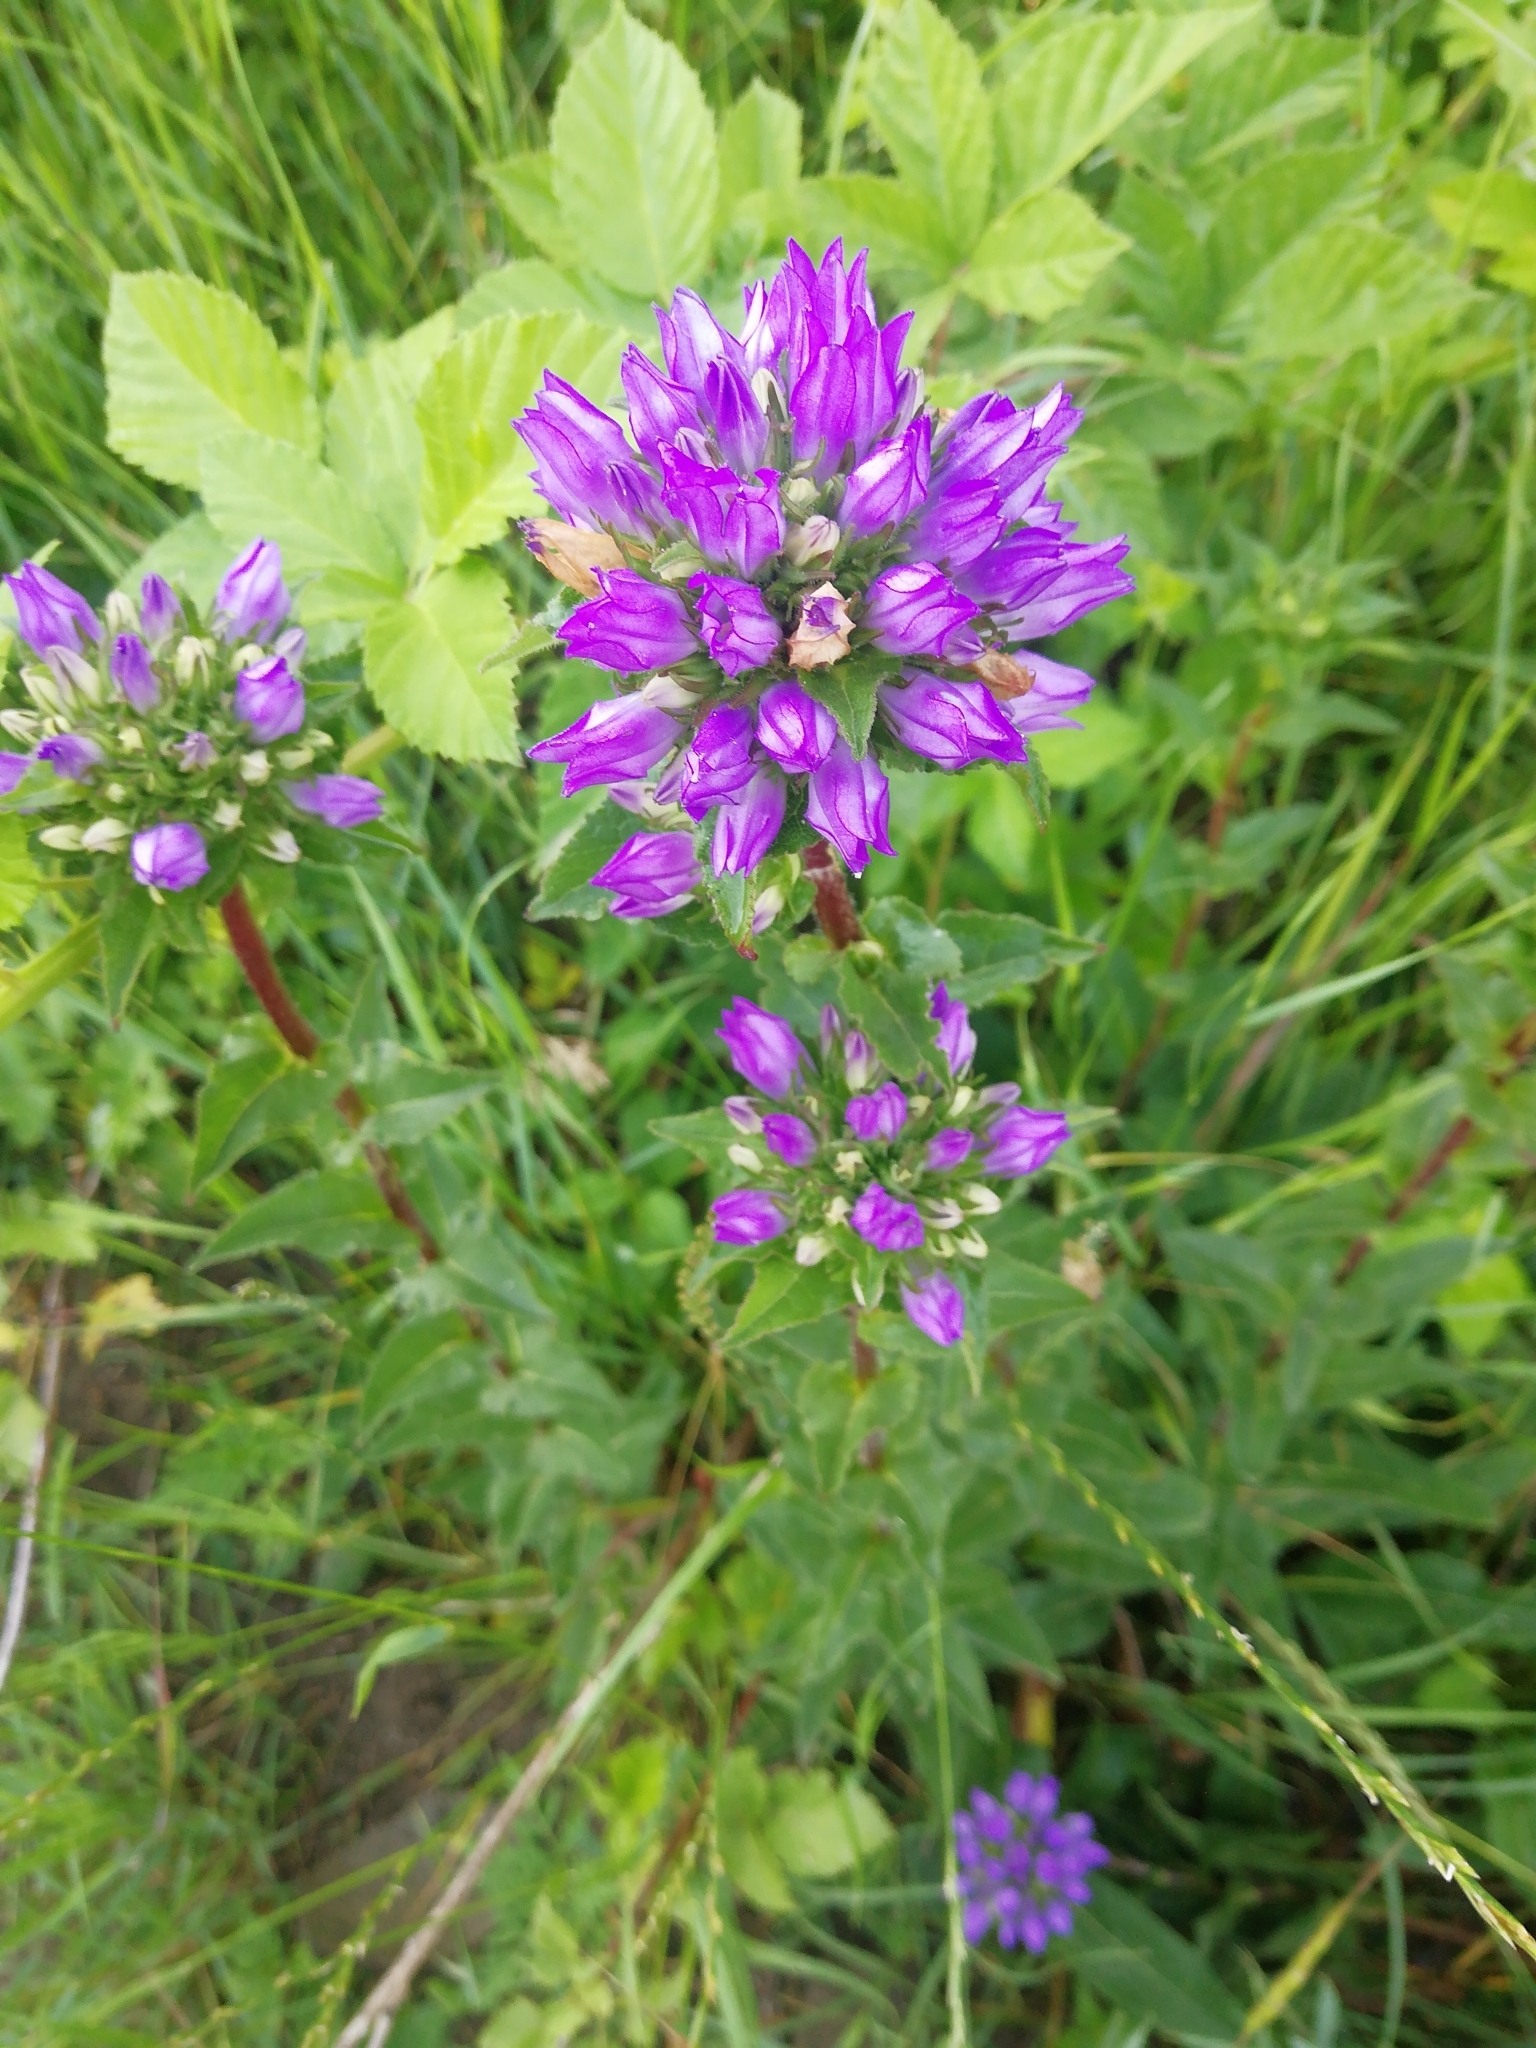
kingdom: Plantae
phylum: Tracheophyta
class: Magnoliopsida
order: Asterales
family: Campanulaceae
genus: Campanula
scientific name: Campanula glomerata
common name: Clustered bellflower
